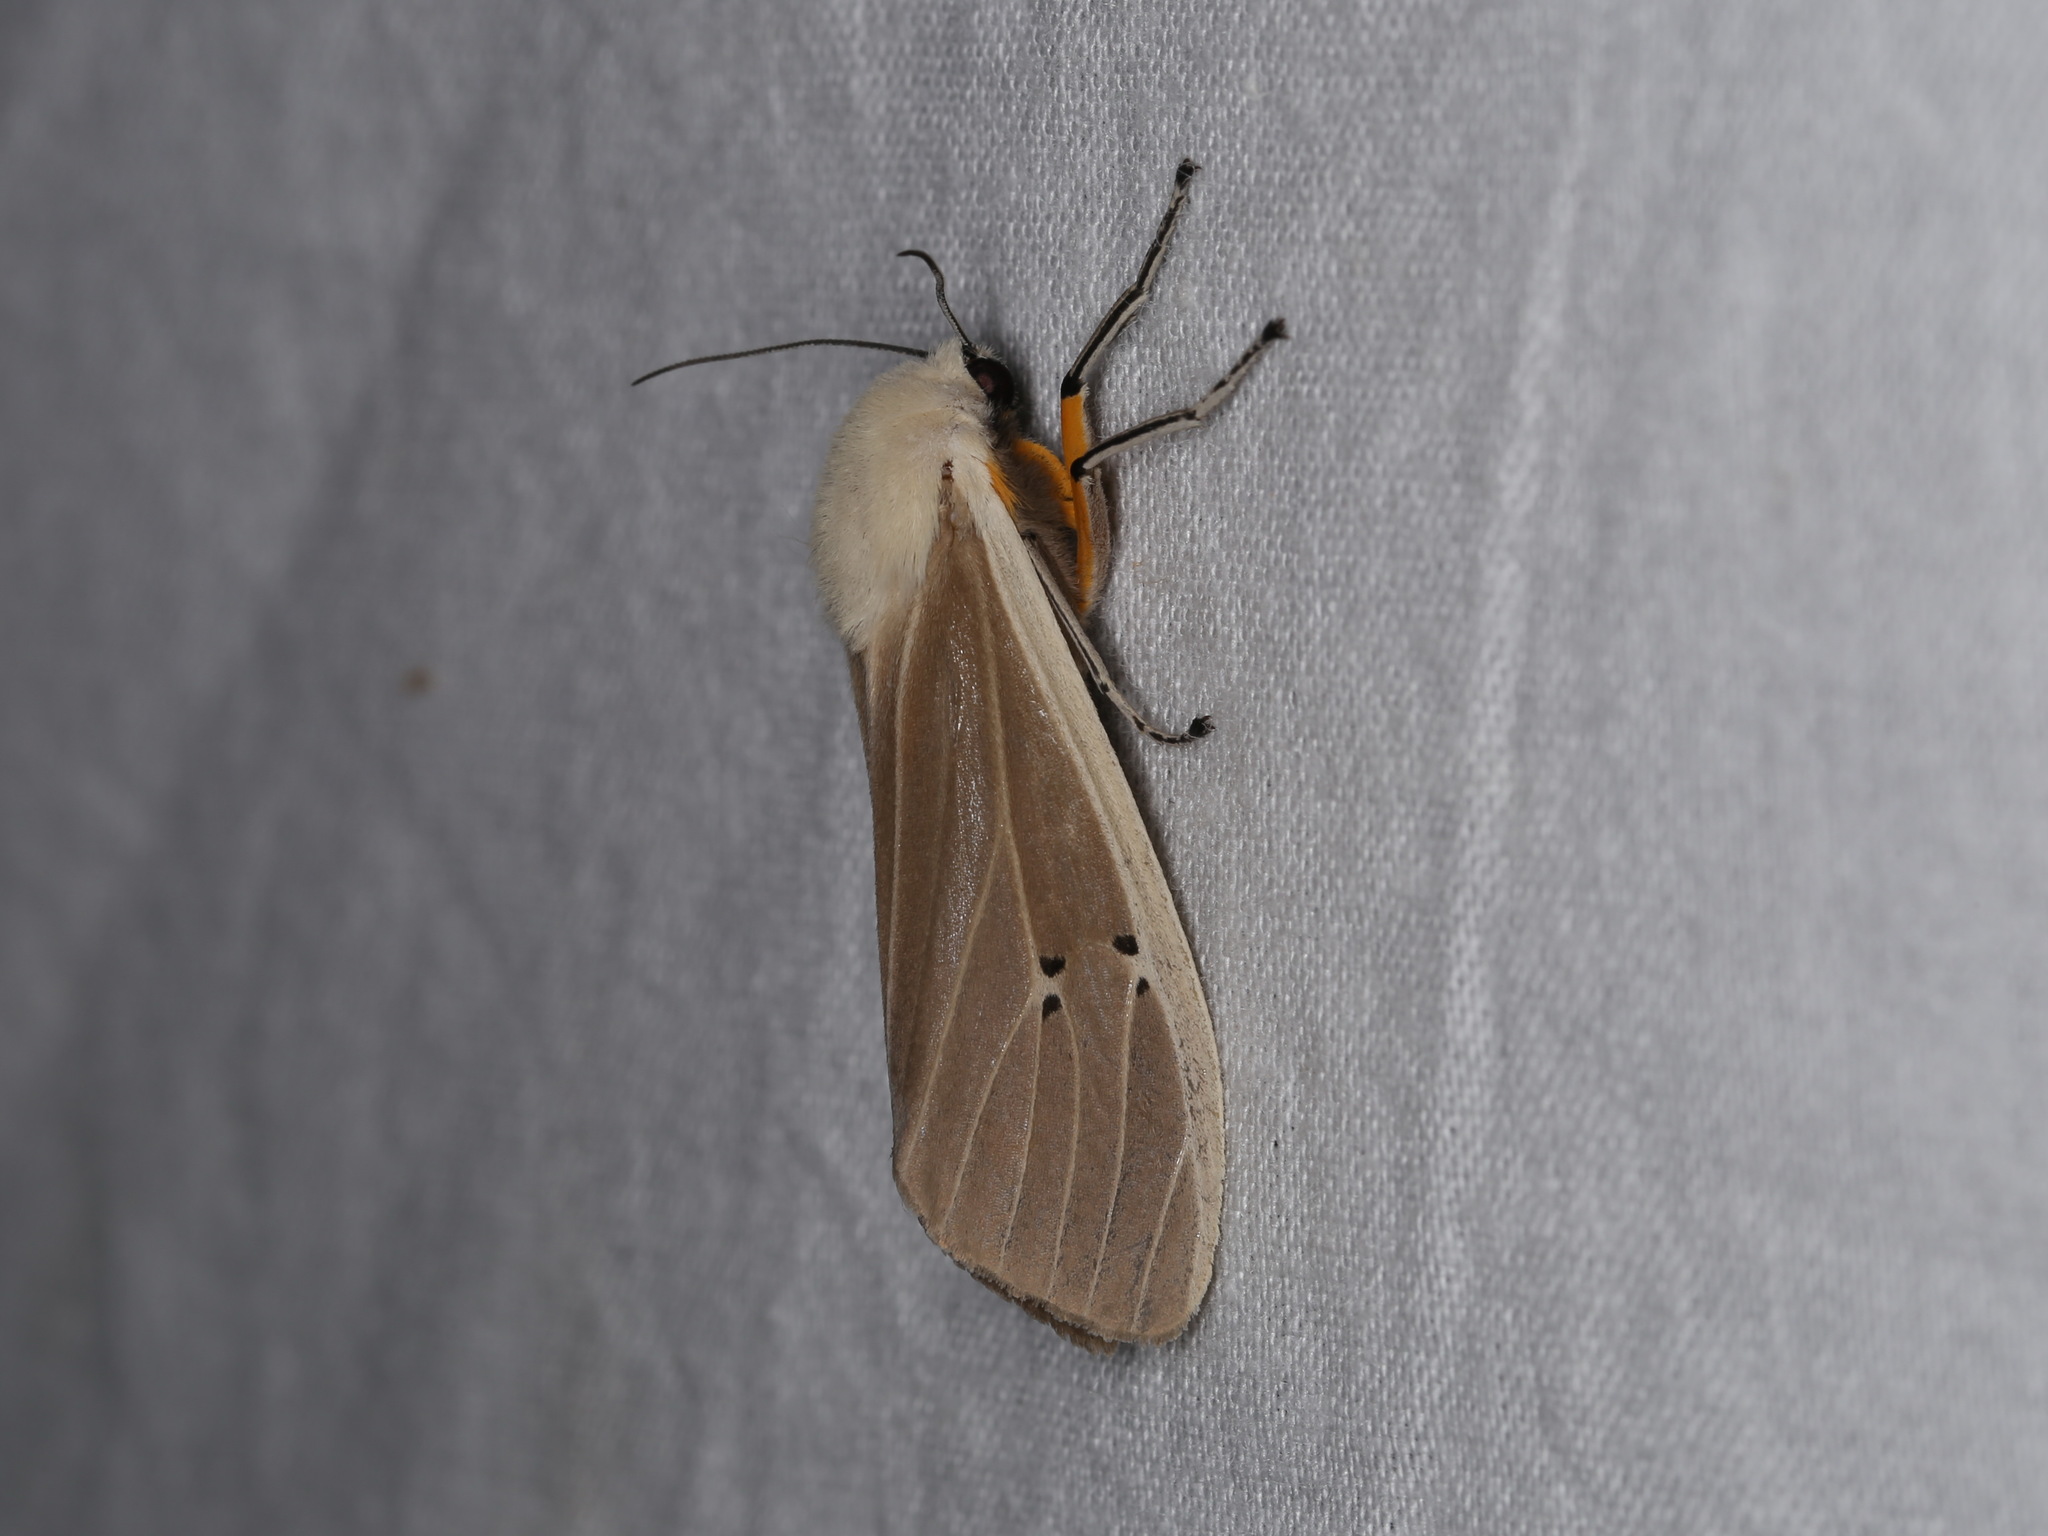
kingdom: Animalia
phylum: Arthropoda
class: Insecta
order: Lepidoptera
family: Erebidae
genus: Creatonotos
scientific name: Creatonotos transiens
